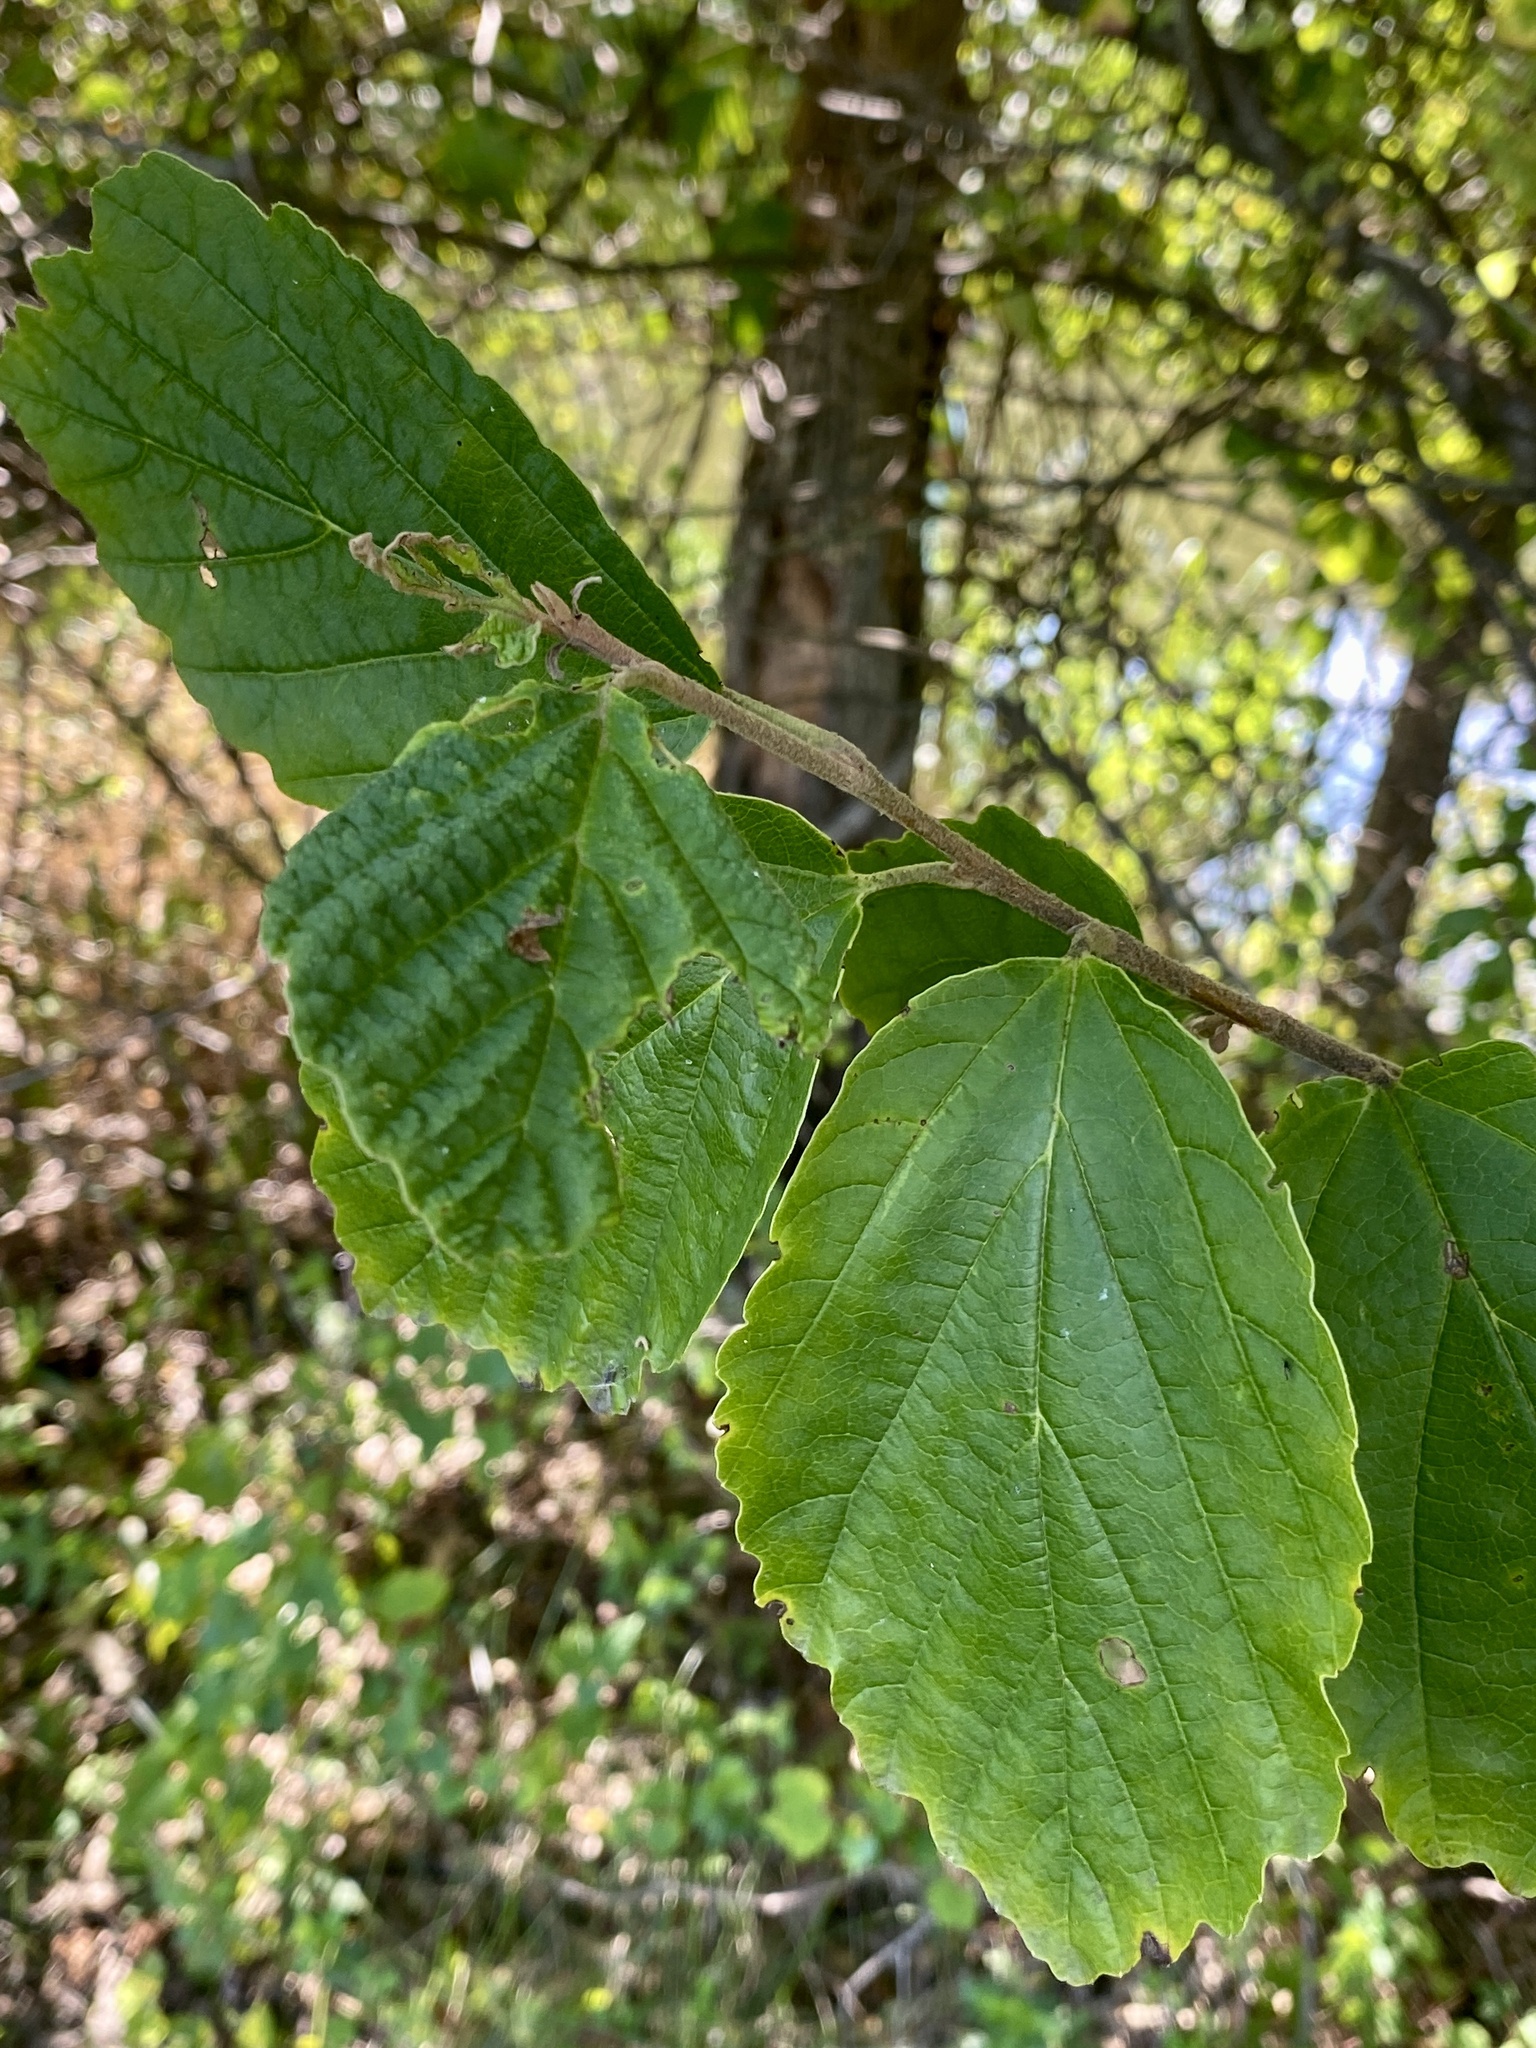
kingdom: Plantae
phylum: Tracheophyta
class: Magnoliopsida
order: Saxifragales
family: Hamamelidaceae
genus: Hamamelis
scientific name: Hamamelis virginiana
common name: Witch-hazel
